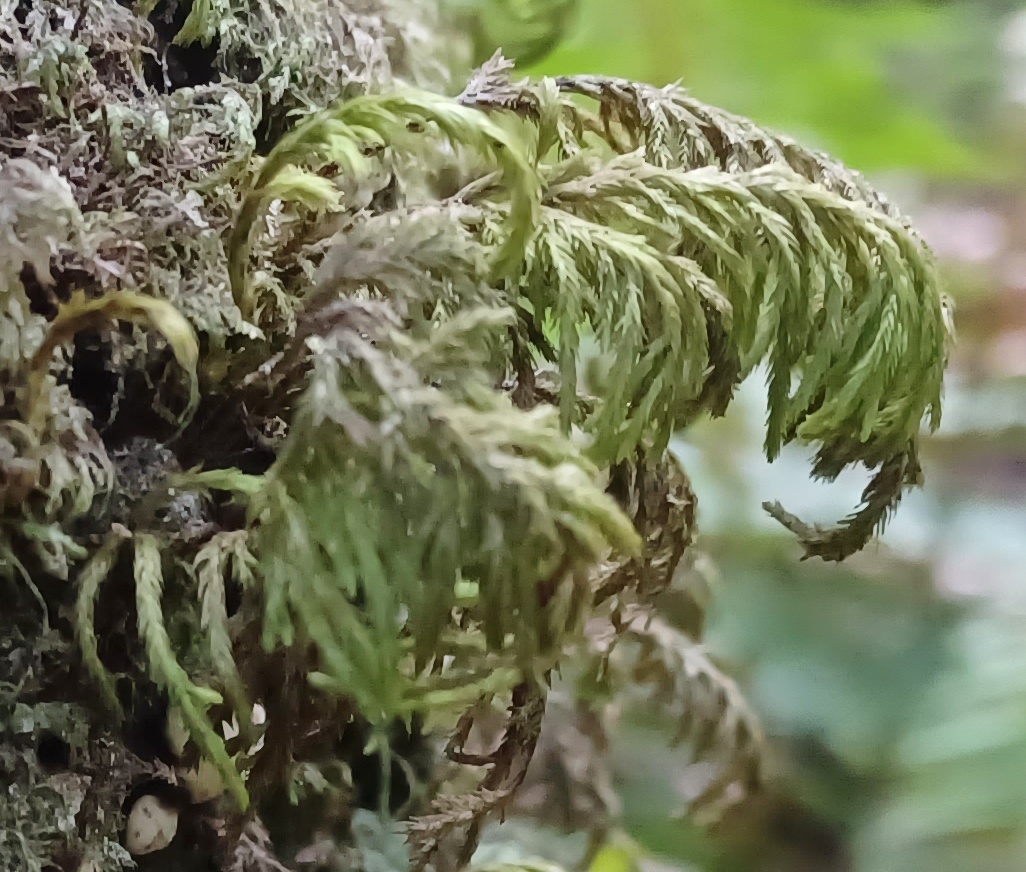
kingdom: Plantae
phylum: Bryophyta
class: Bryopsida
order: Hypnales
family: Cryphaeaceae
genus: Dendroalsia
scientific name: Dendroalsia abietina
